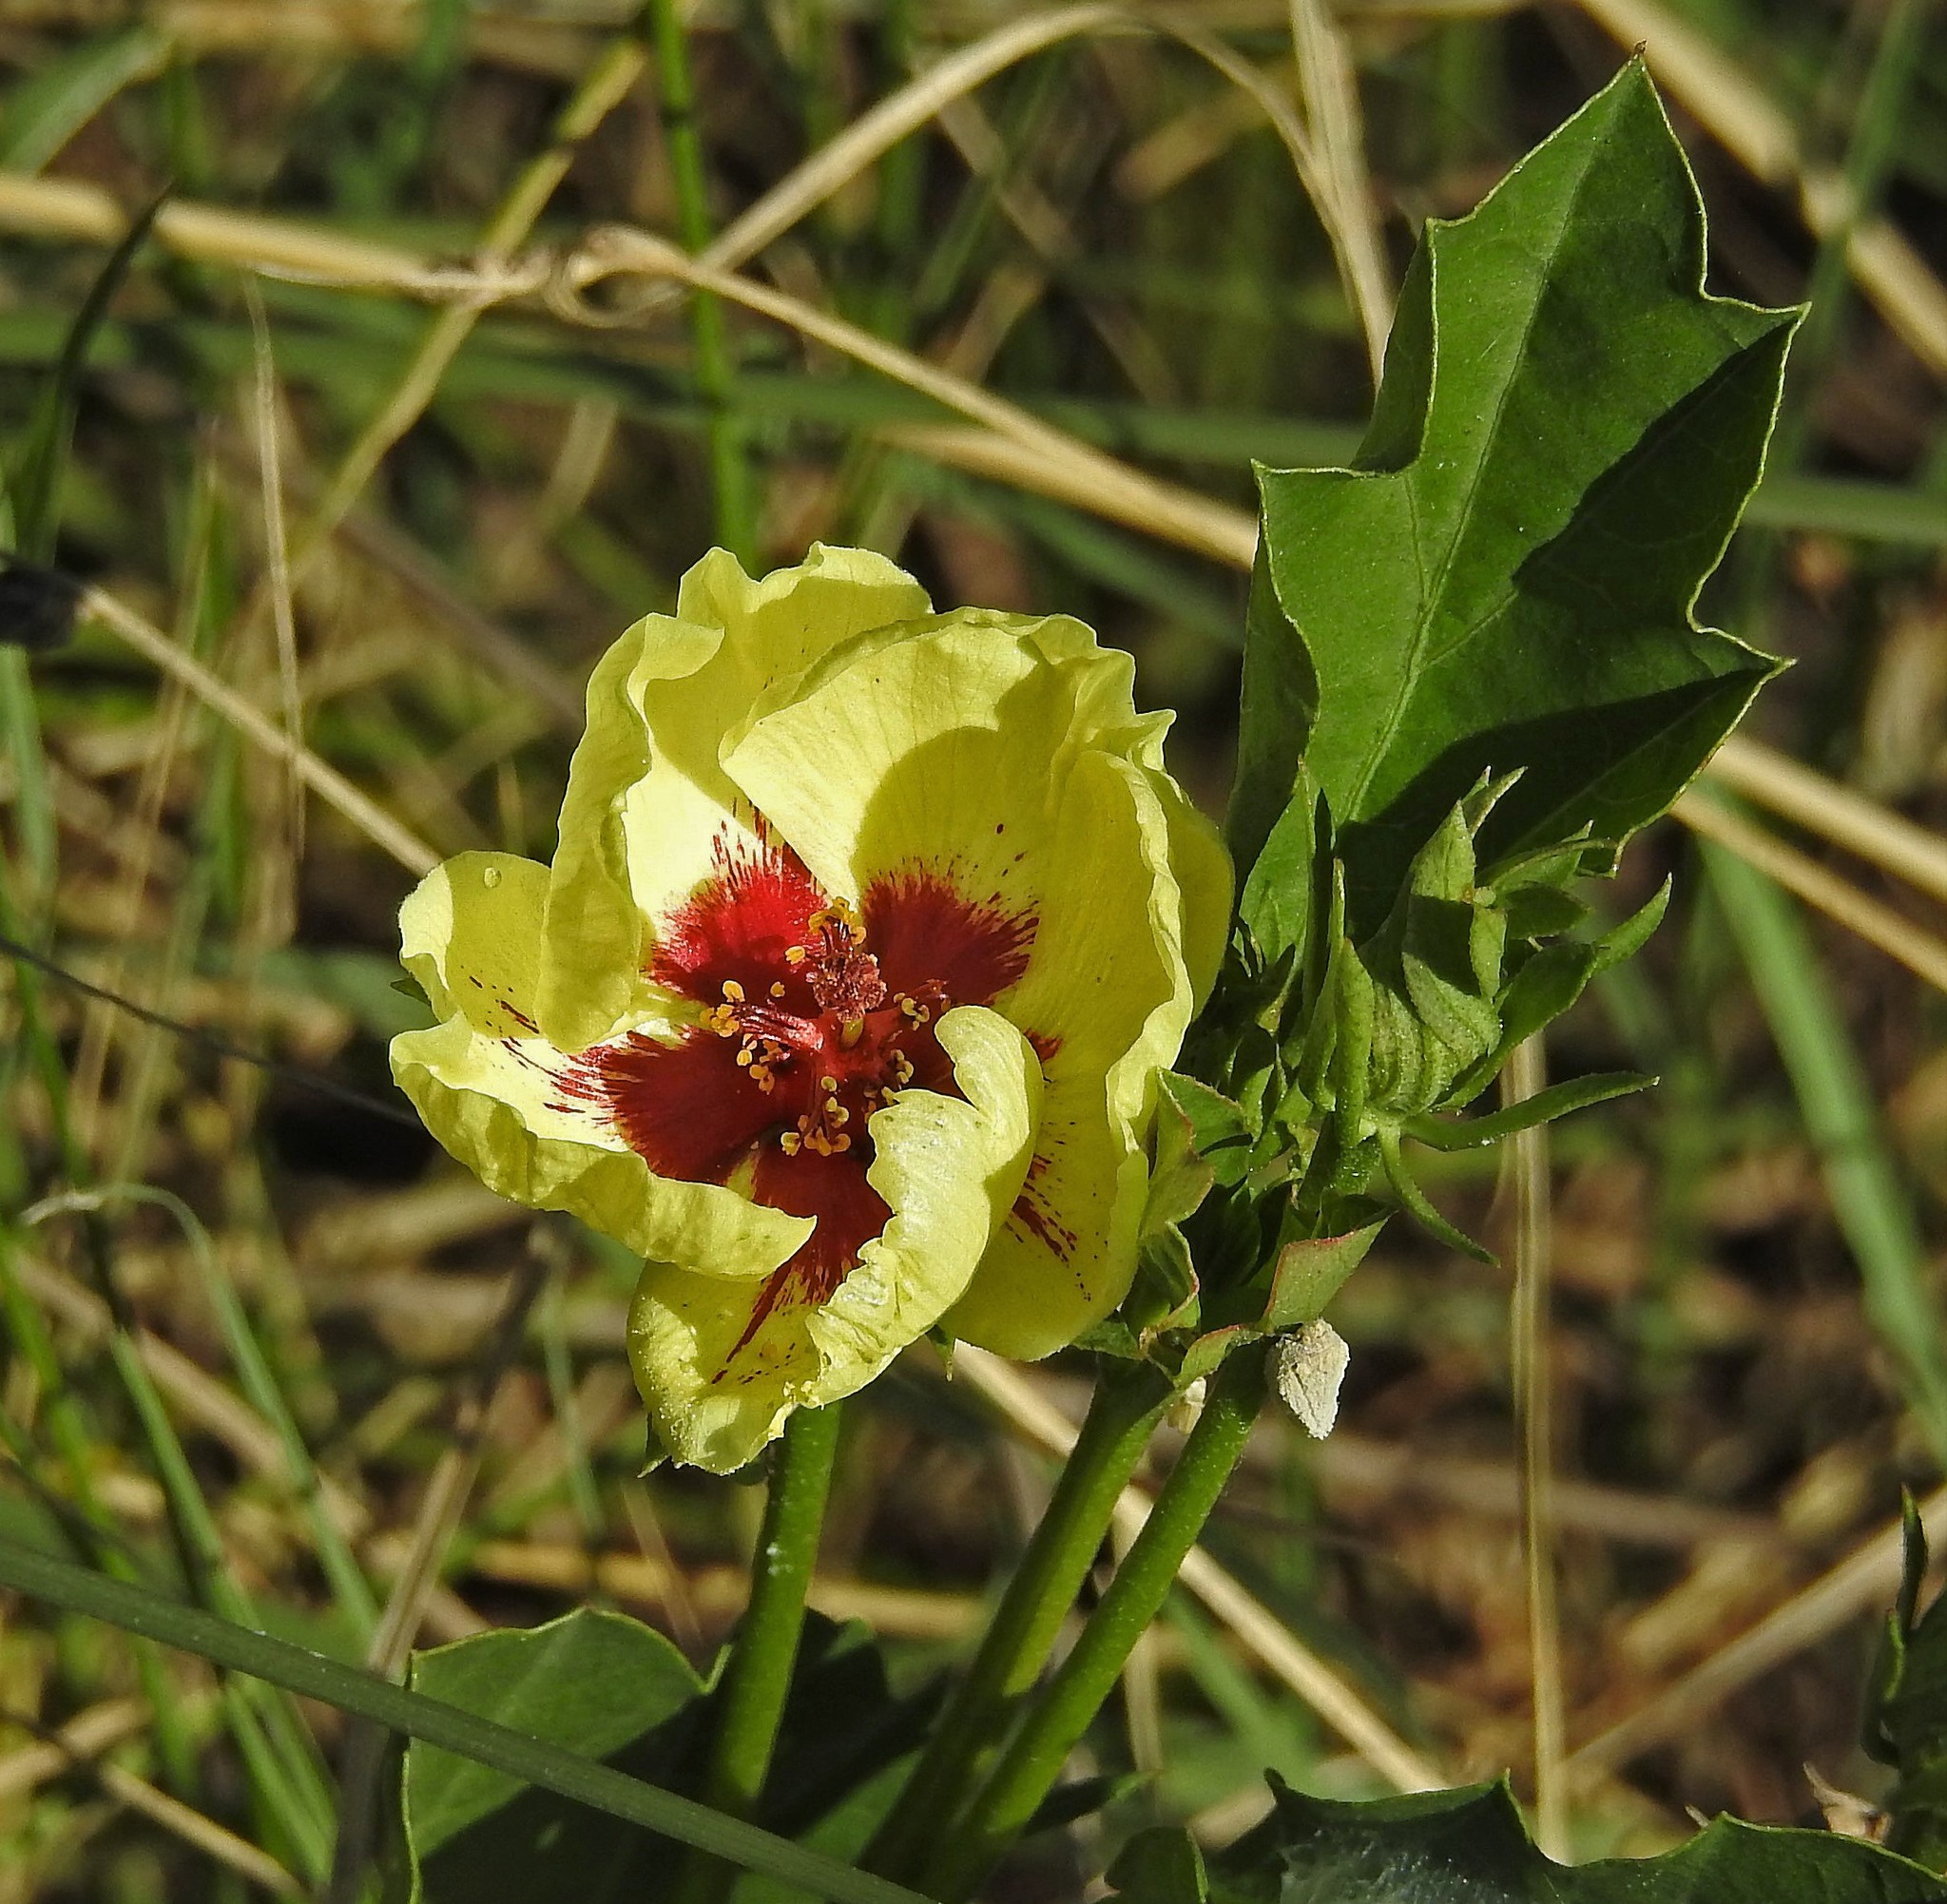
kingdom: Plantae
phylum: Tracheophyta
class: Magnoliopsida
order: Malvales
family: Malvaceae
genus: Cienfuegosia
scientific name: Cienfuegosia drummondii
